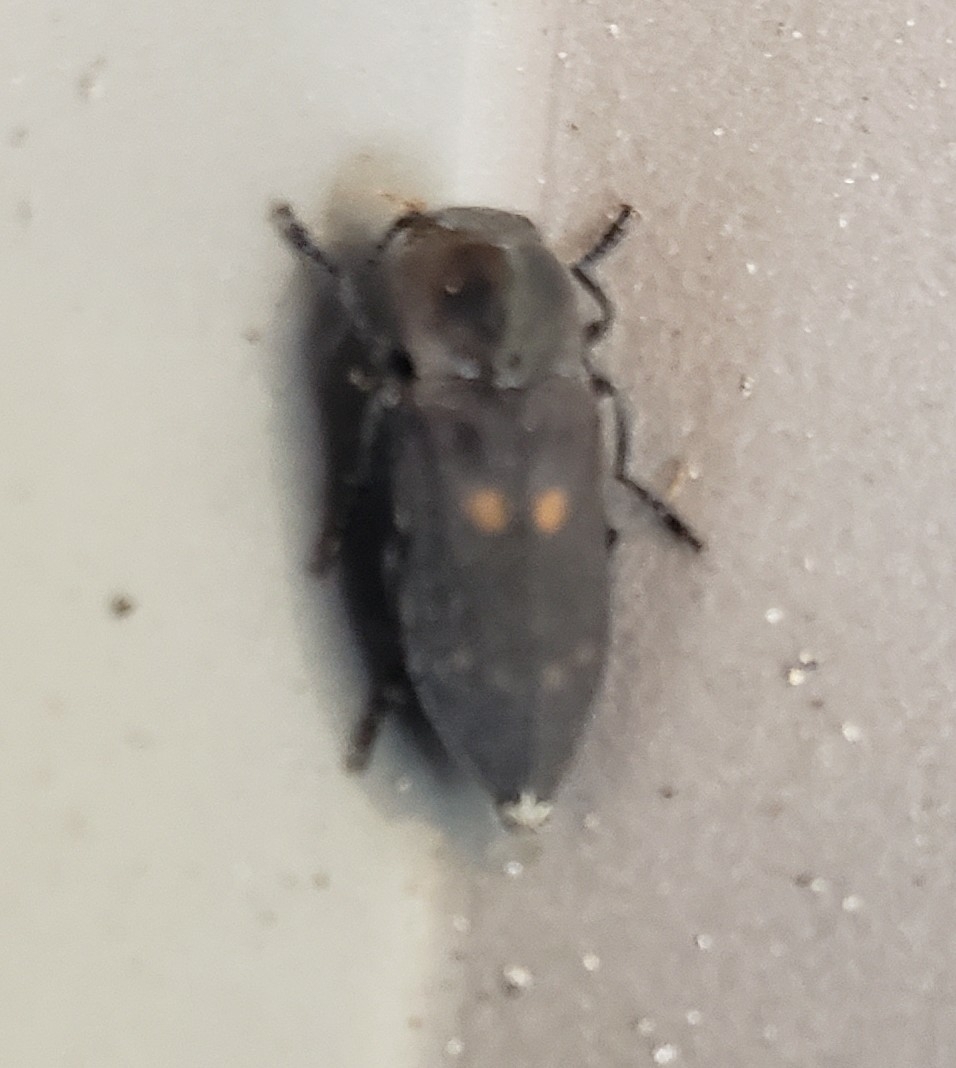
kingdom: Animalia
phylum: Arthropoda
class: Insecta
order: Coleoptera
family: Buprestidae
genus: Melanophila
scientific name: Melanophila notata
